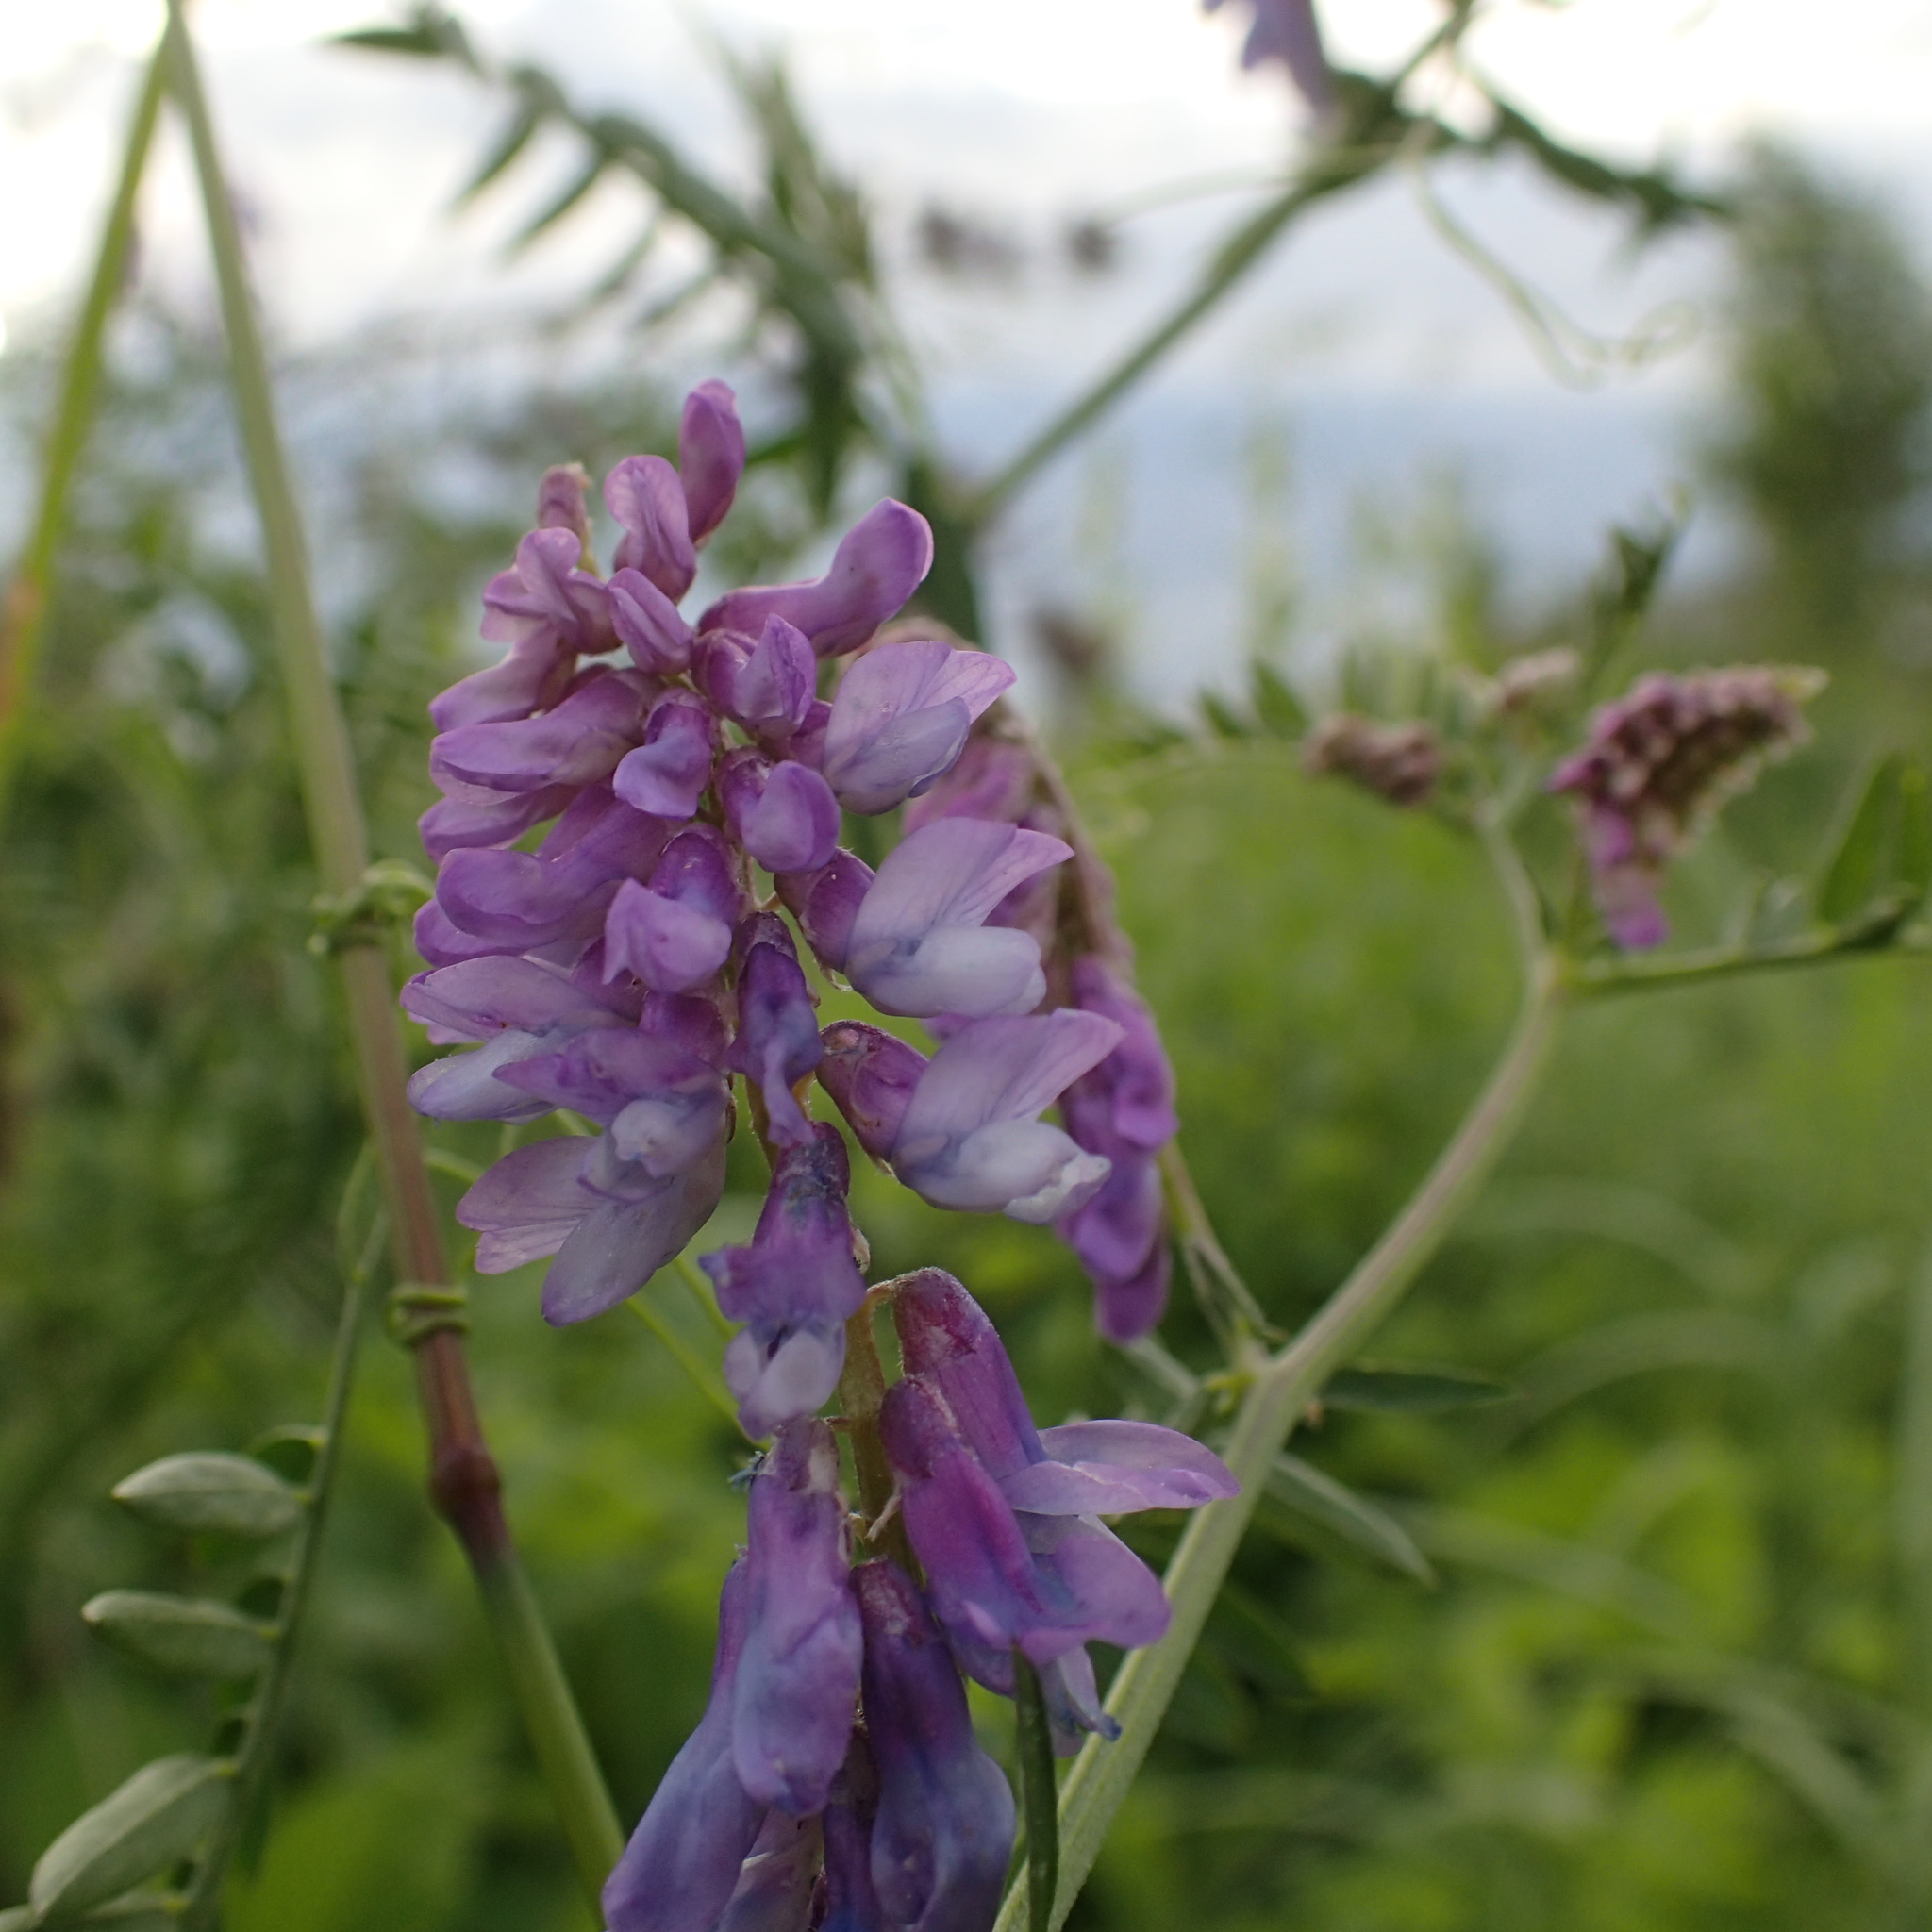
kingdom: Plantae
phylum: Tracheophyta
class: Magnoliopsida
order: Fabales
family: Fabaceae
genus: Vicia
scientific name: Vicia cracca
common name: Bird vetch
